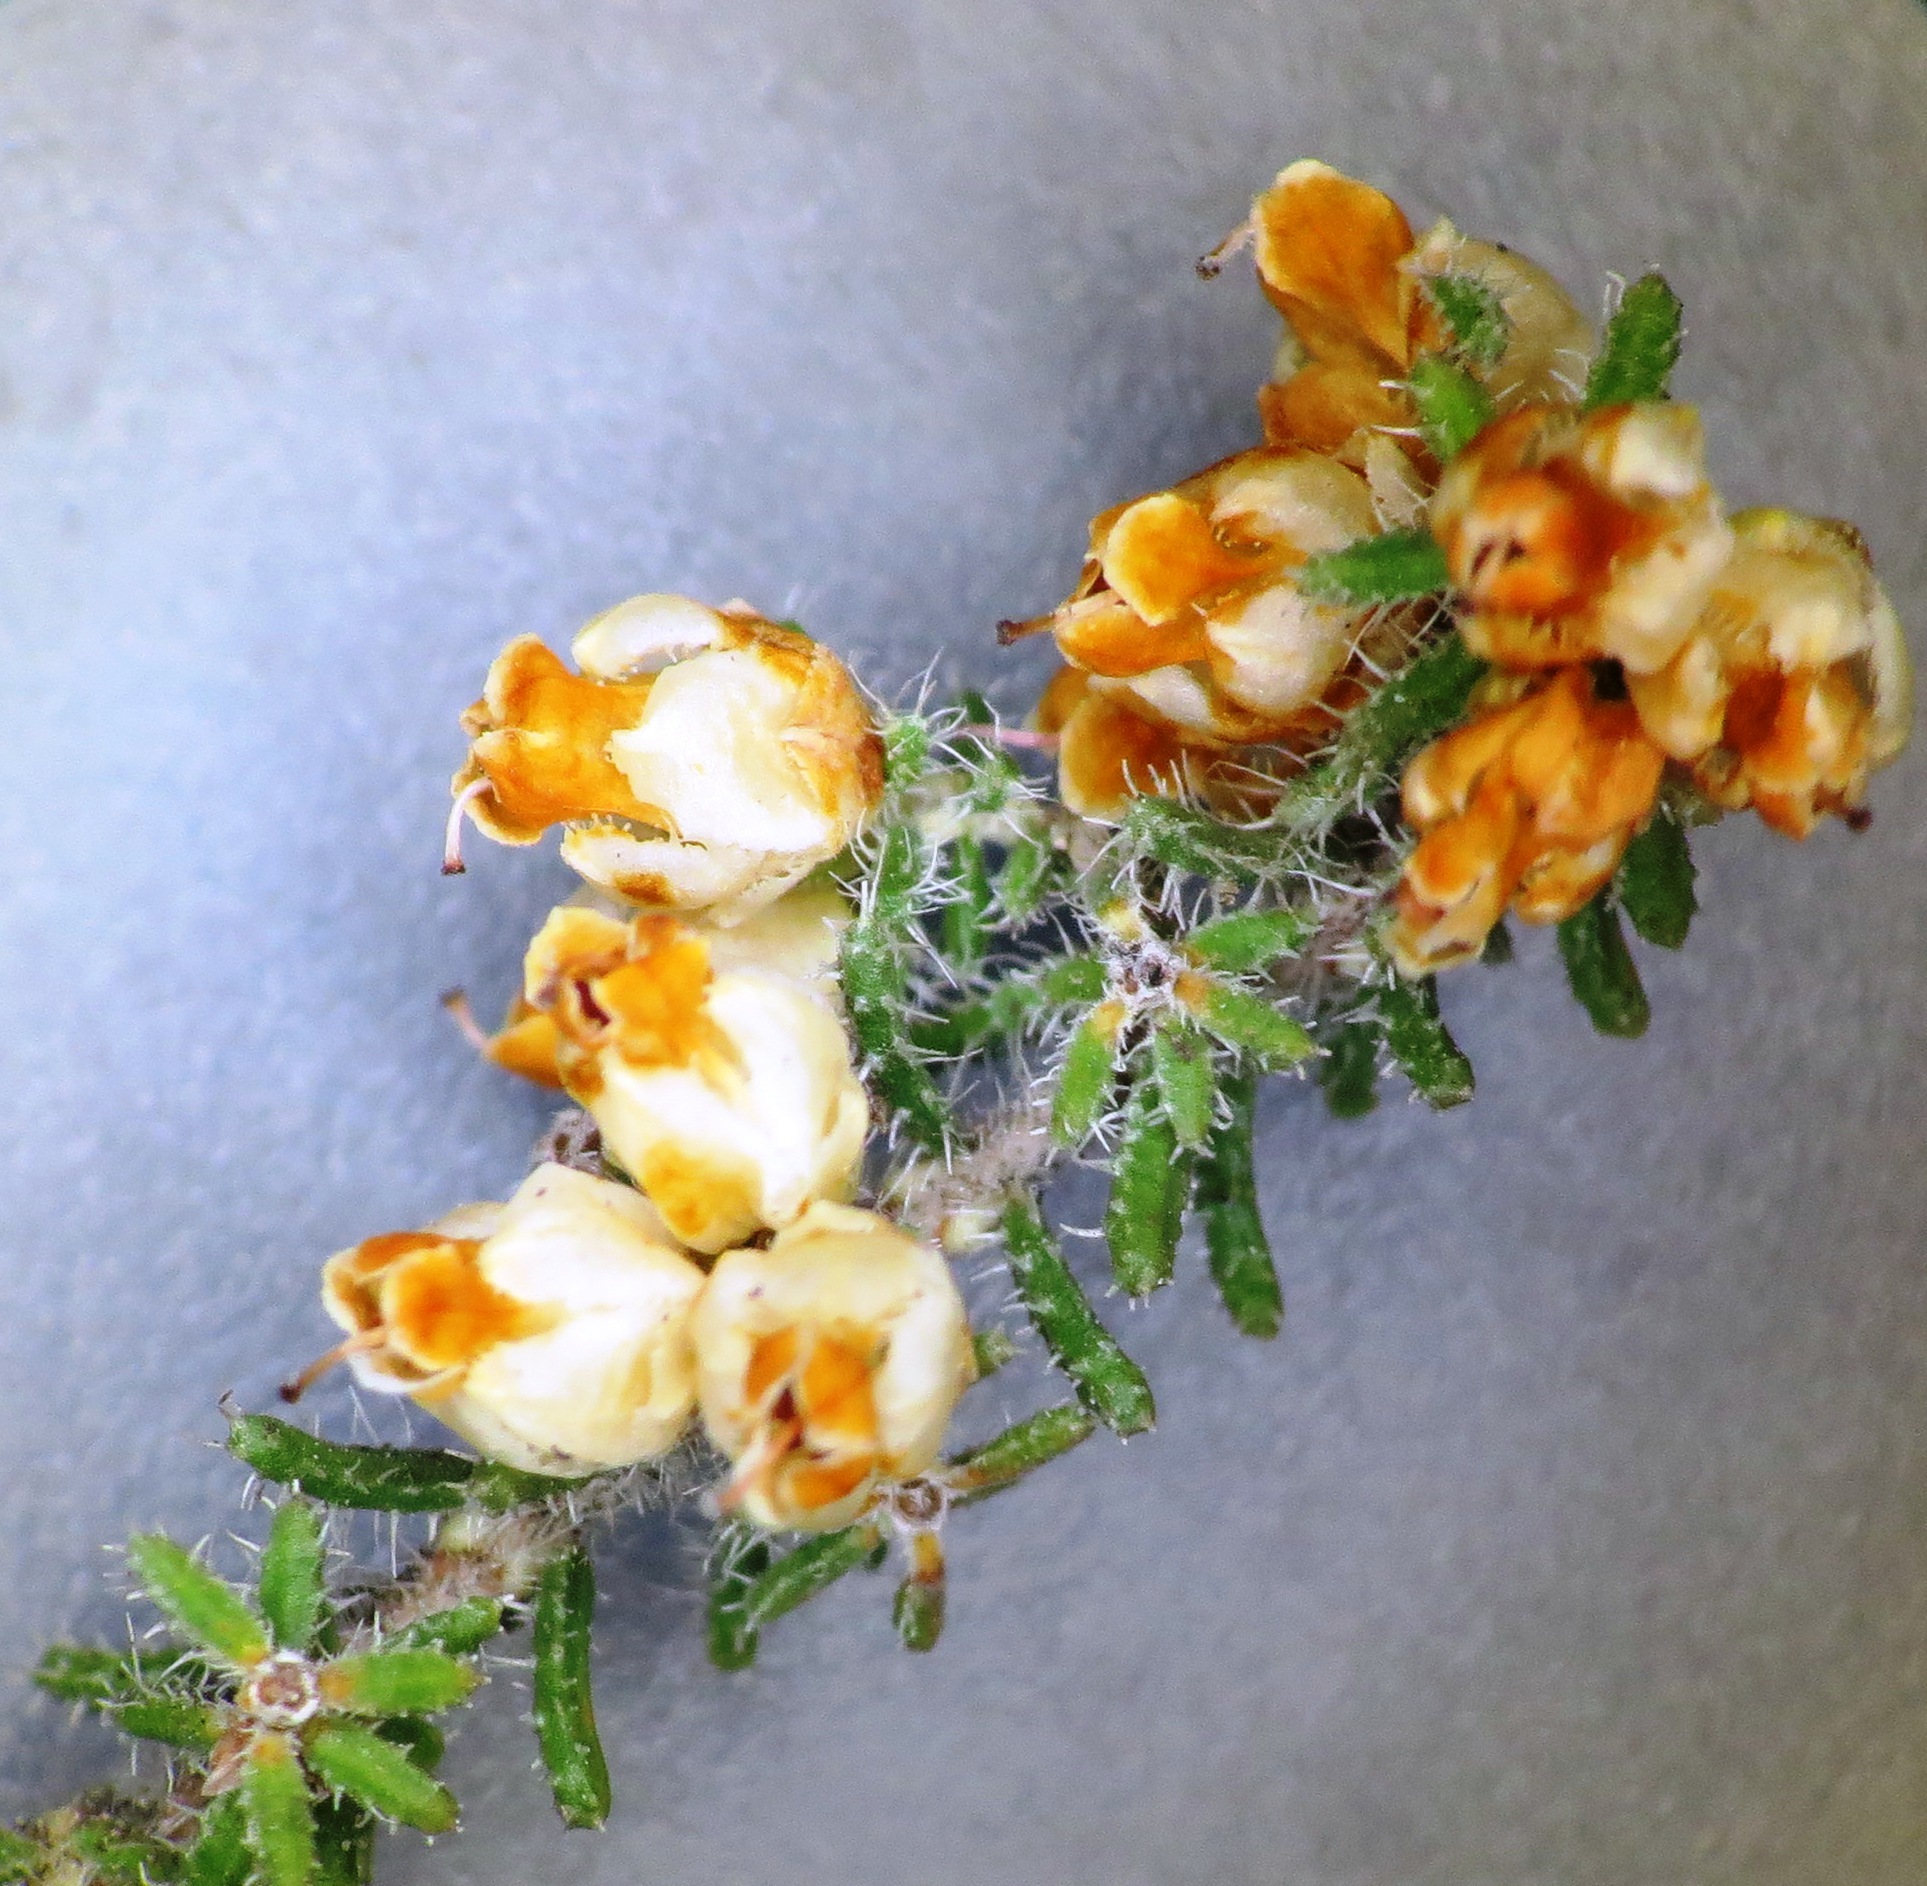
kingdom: Plantae
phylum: Tracheophyta
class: Magnoliopsida
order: Ericales
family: Ericaceae
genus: Erica
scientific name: Erica totta
